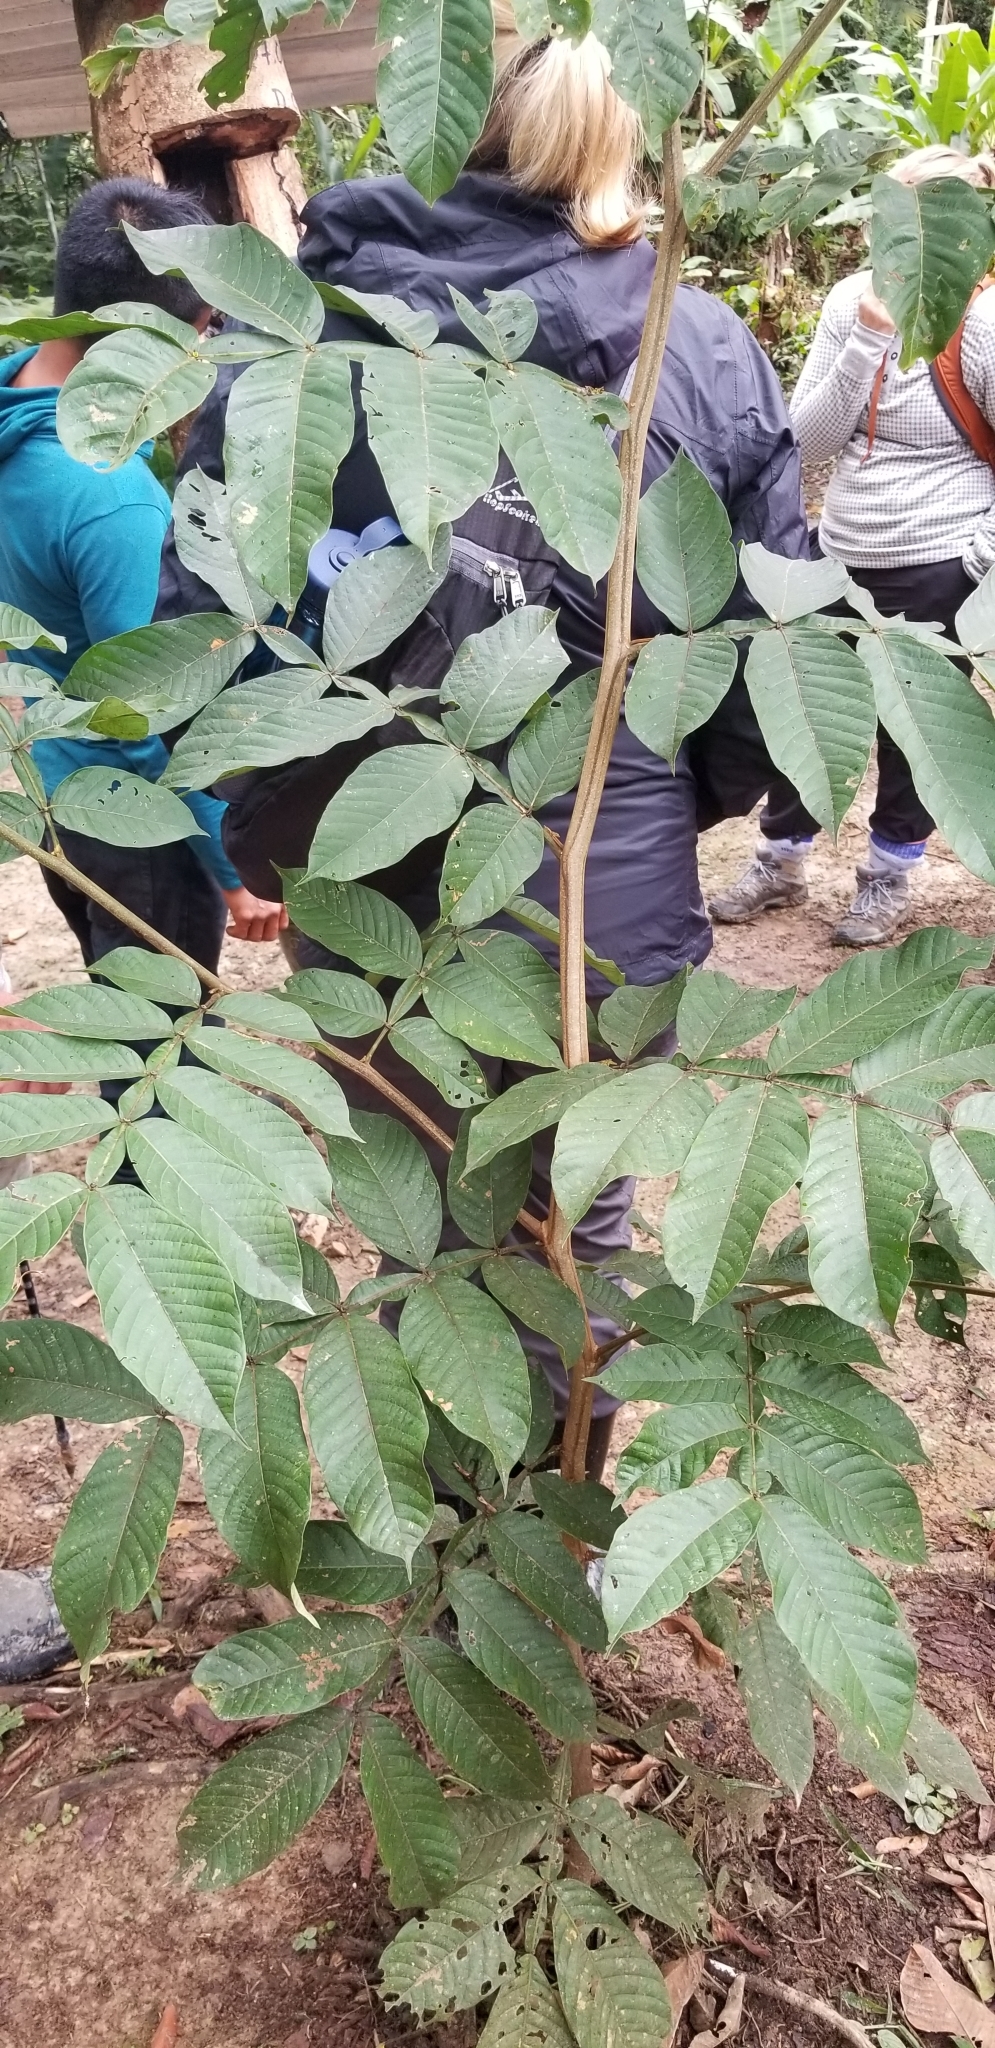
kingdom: Plantae
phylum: Tracheophyta
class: Magnoliopsida
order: Fabales
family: Fabaceae
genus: Inga
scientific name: Inga
